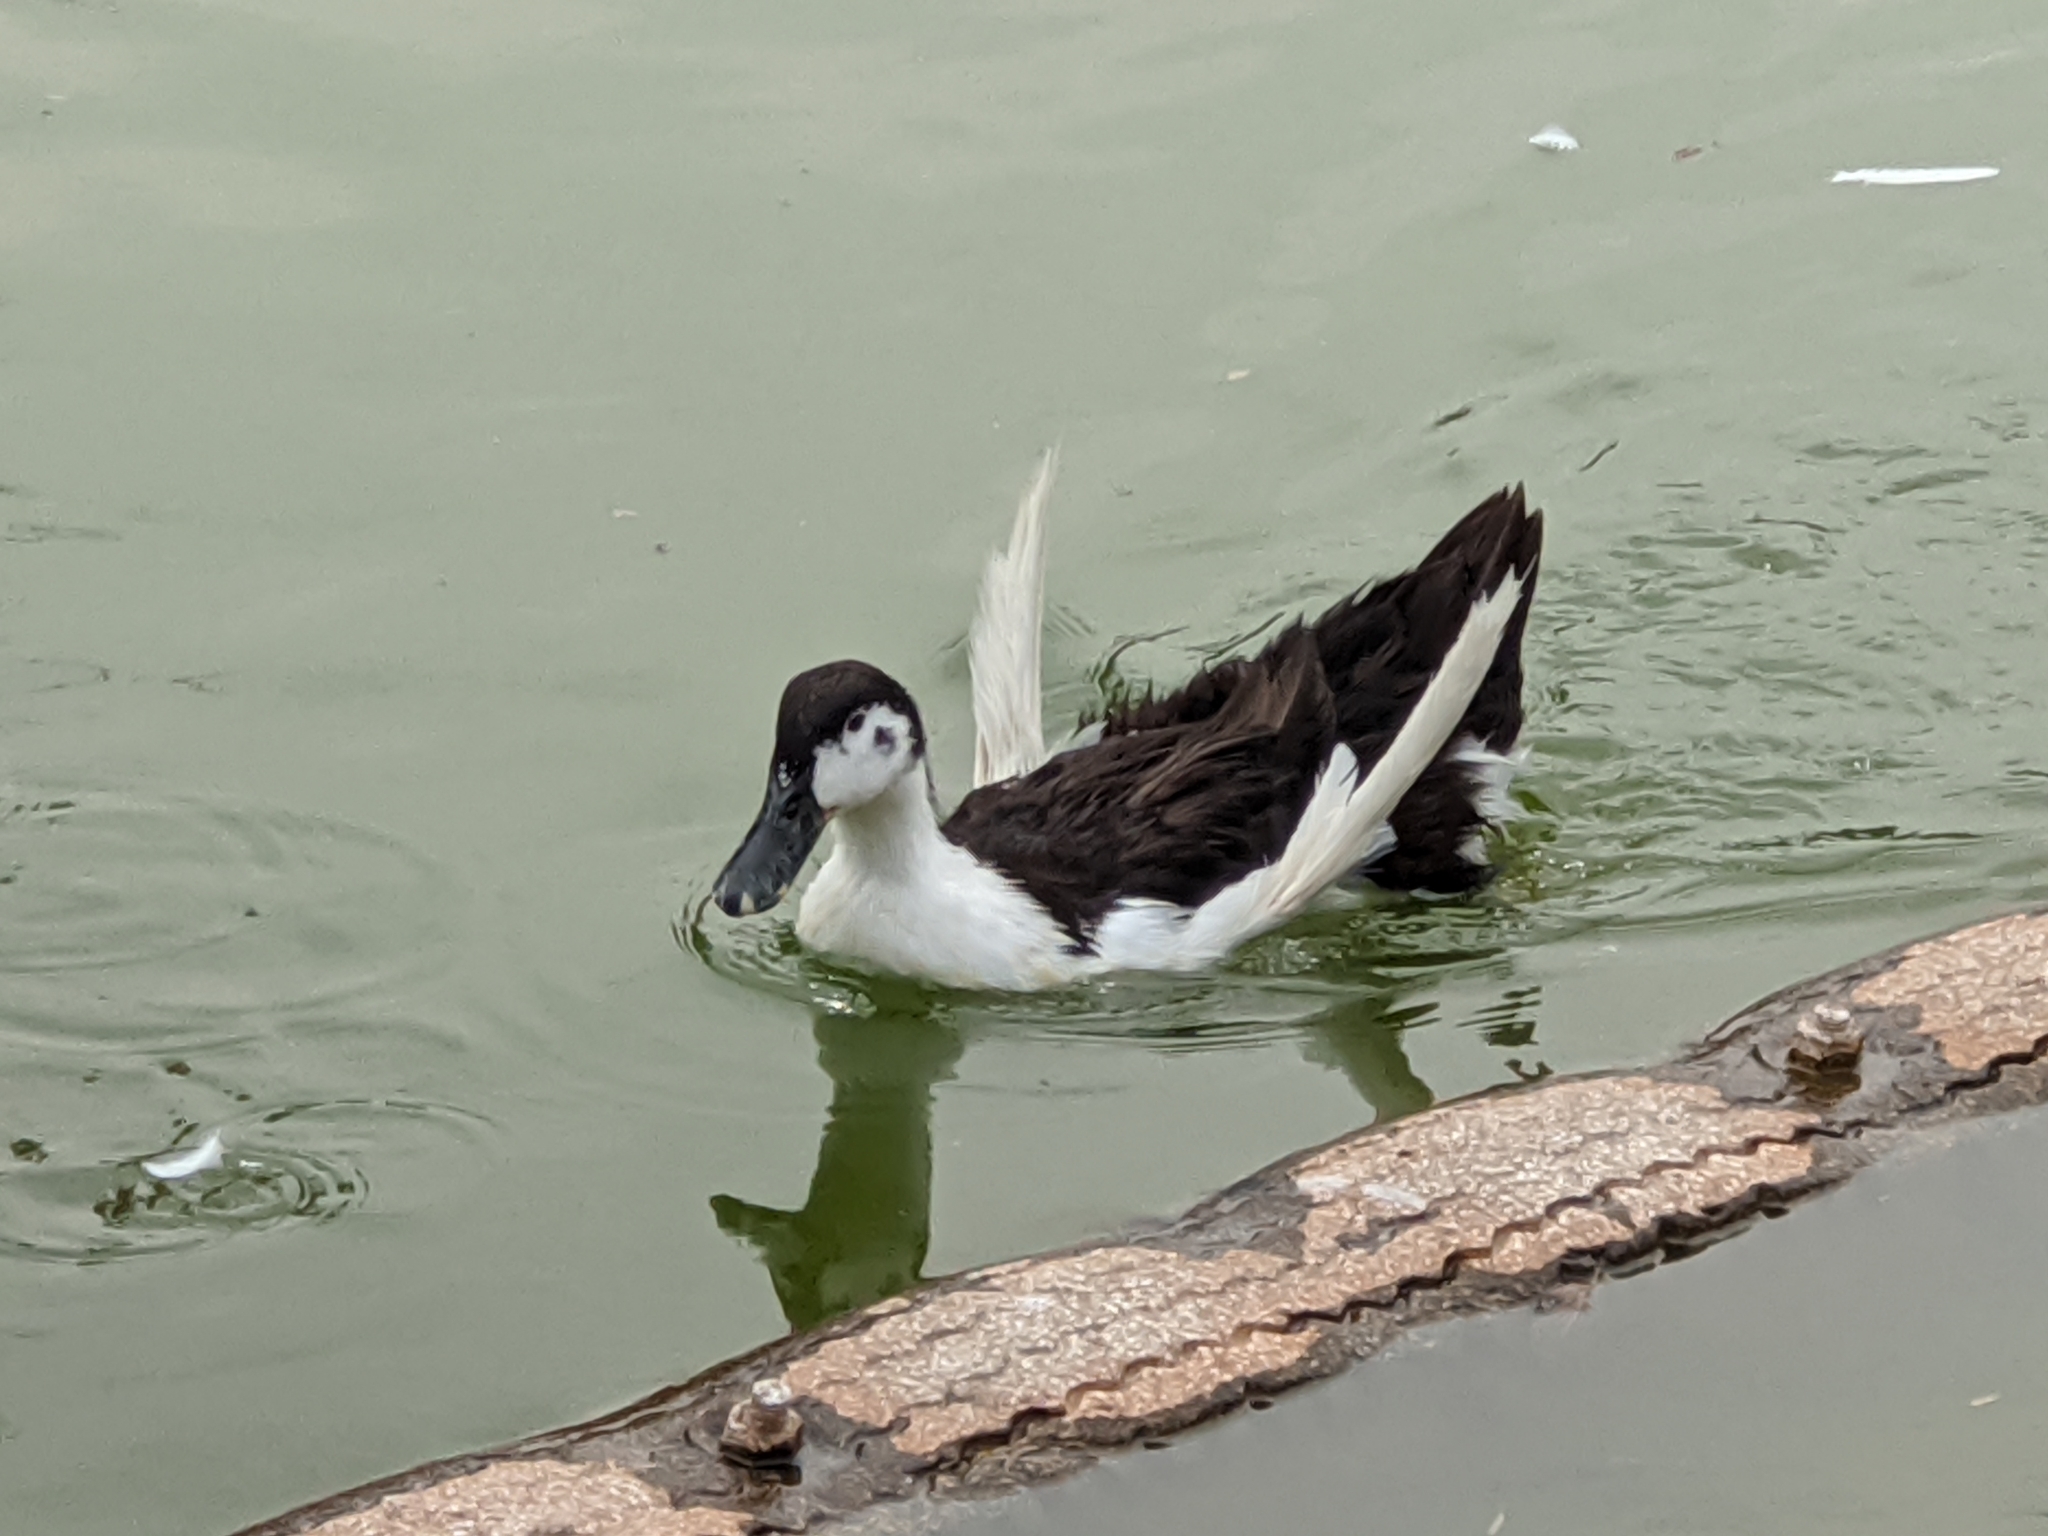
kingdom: Animalia
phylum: Chordata
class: Aves
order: Anseriformes
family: Anatidae
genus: Anas
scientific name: Anas platyrhynchos
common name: Mallard
